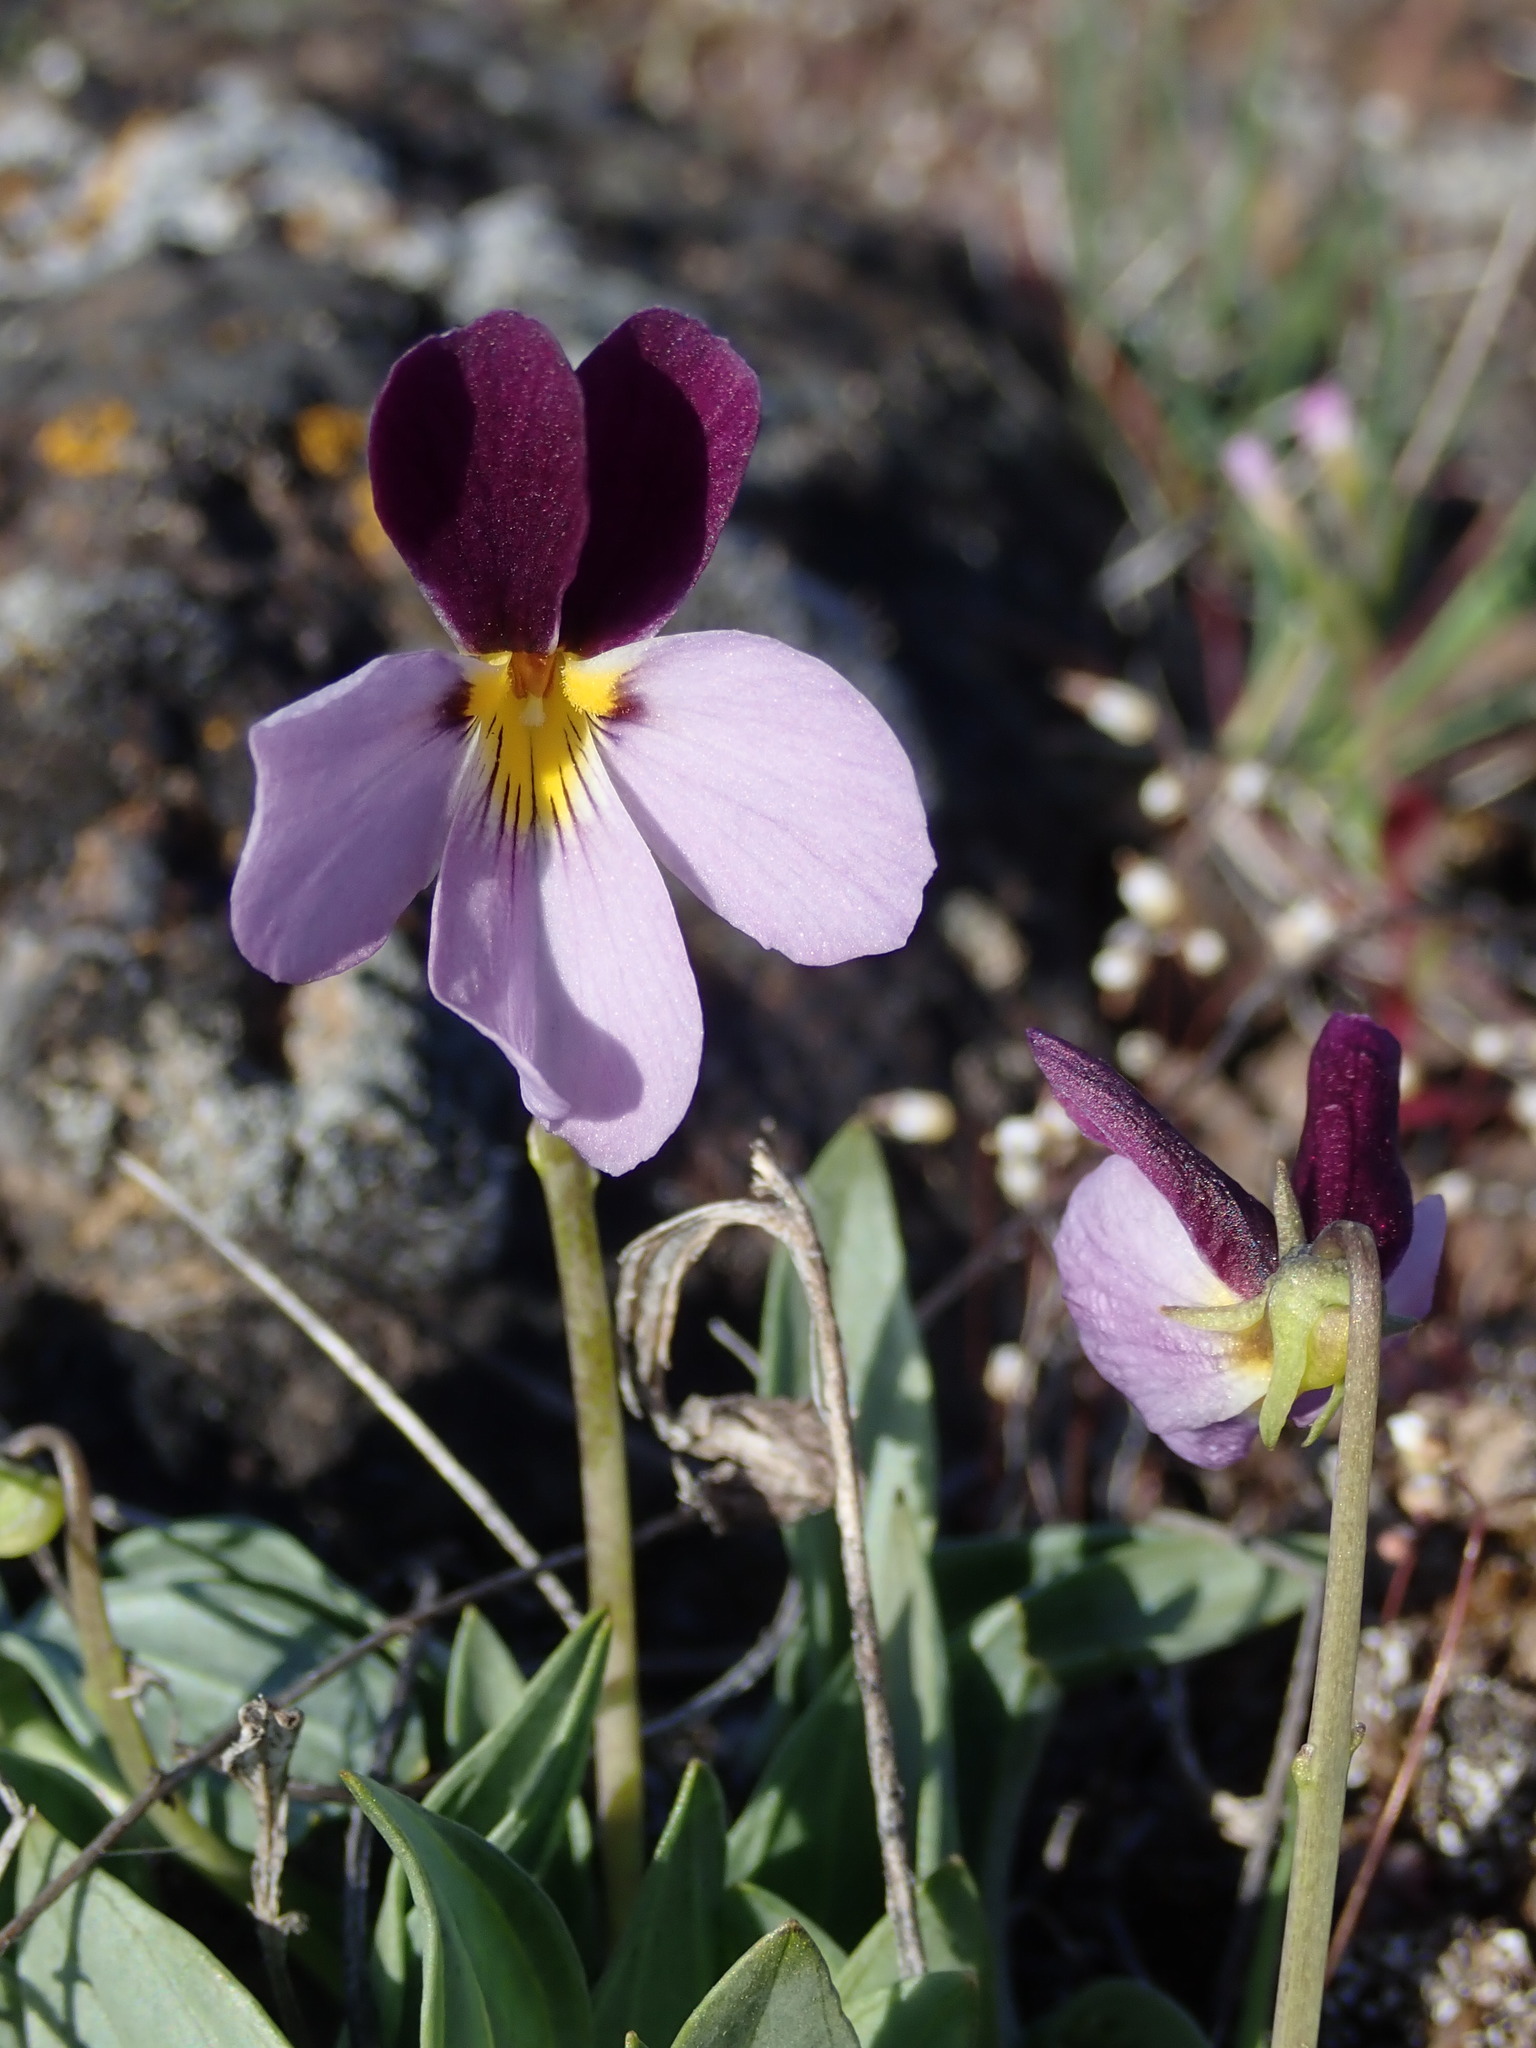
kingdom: Plantae
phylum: Tracheophyta
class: Magnoliopsida
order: Malpighiales
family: Violaceae
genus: Viola
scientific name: Viola trinervata
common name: Sagebrush violet
